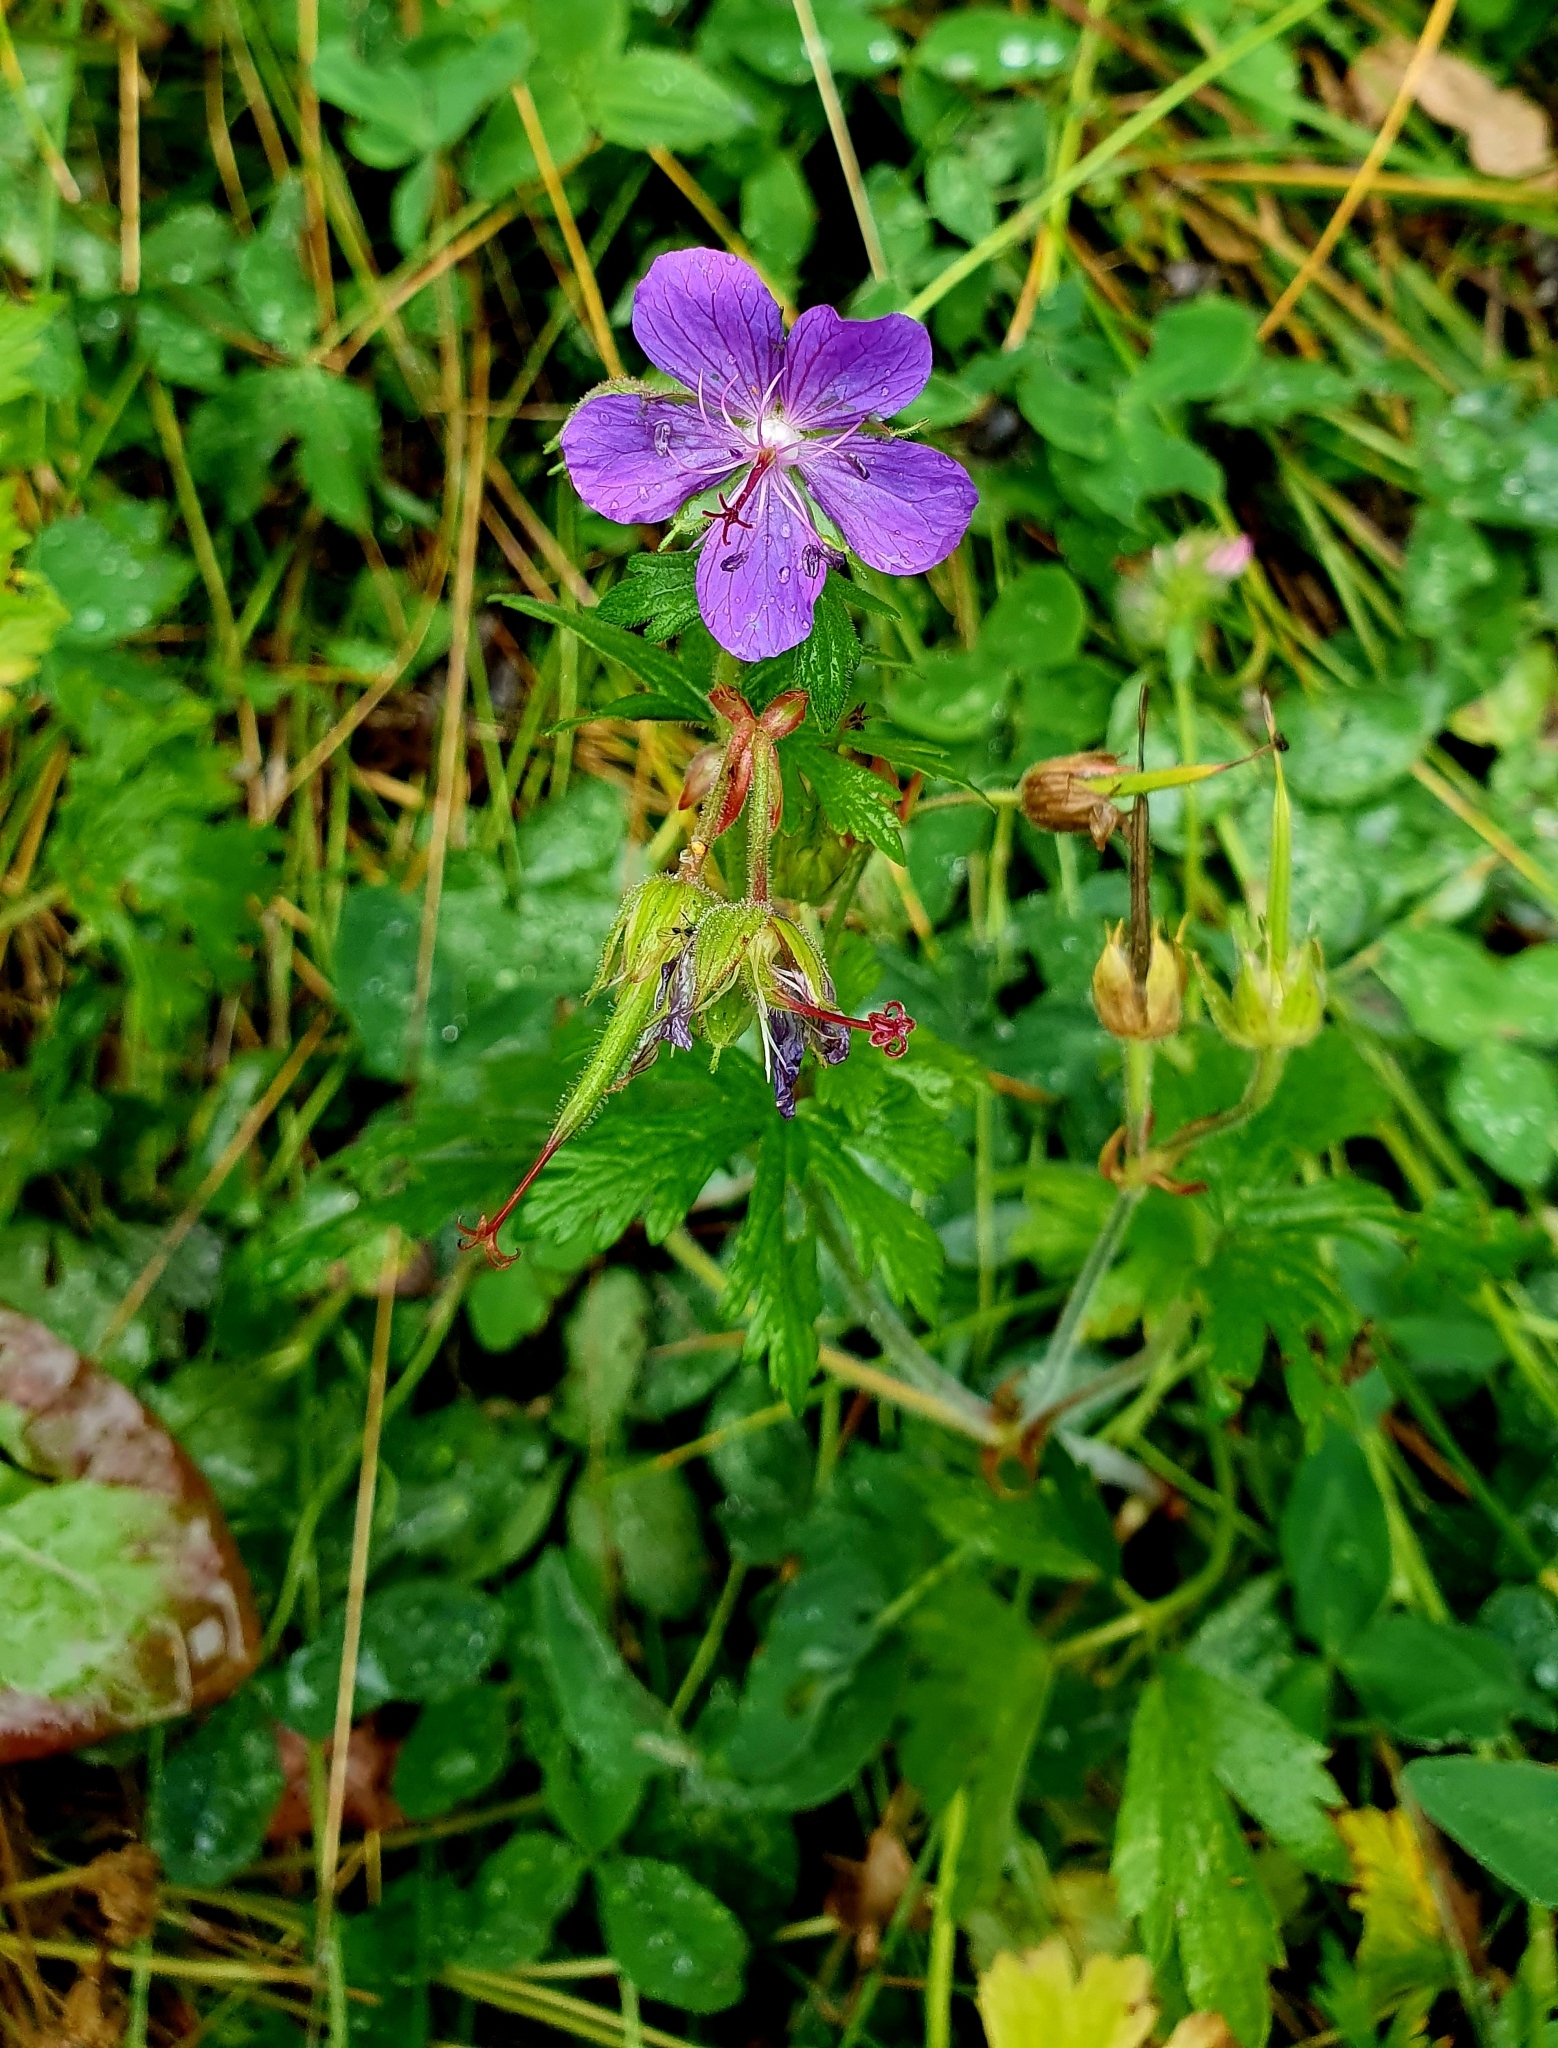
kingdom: Plantae
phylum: Tracheophyta
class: Magnoliopsida
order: Geraniales
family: Geraniaceae
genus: Geranium
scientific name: Geranium pratense
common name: Meadow crane's-bill
